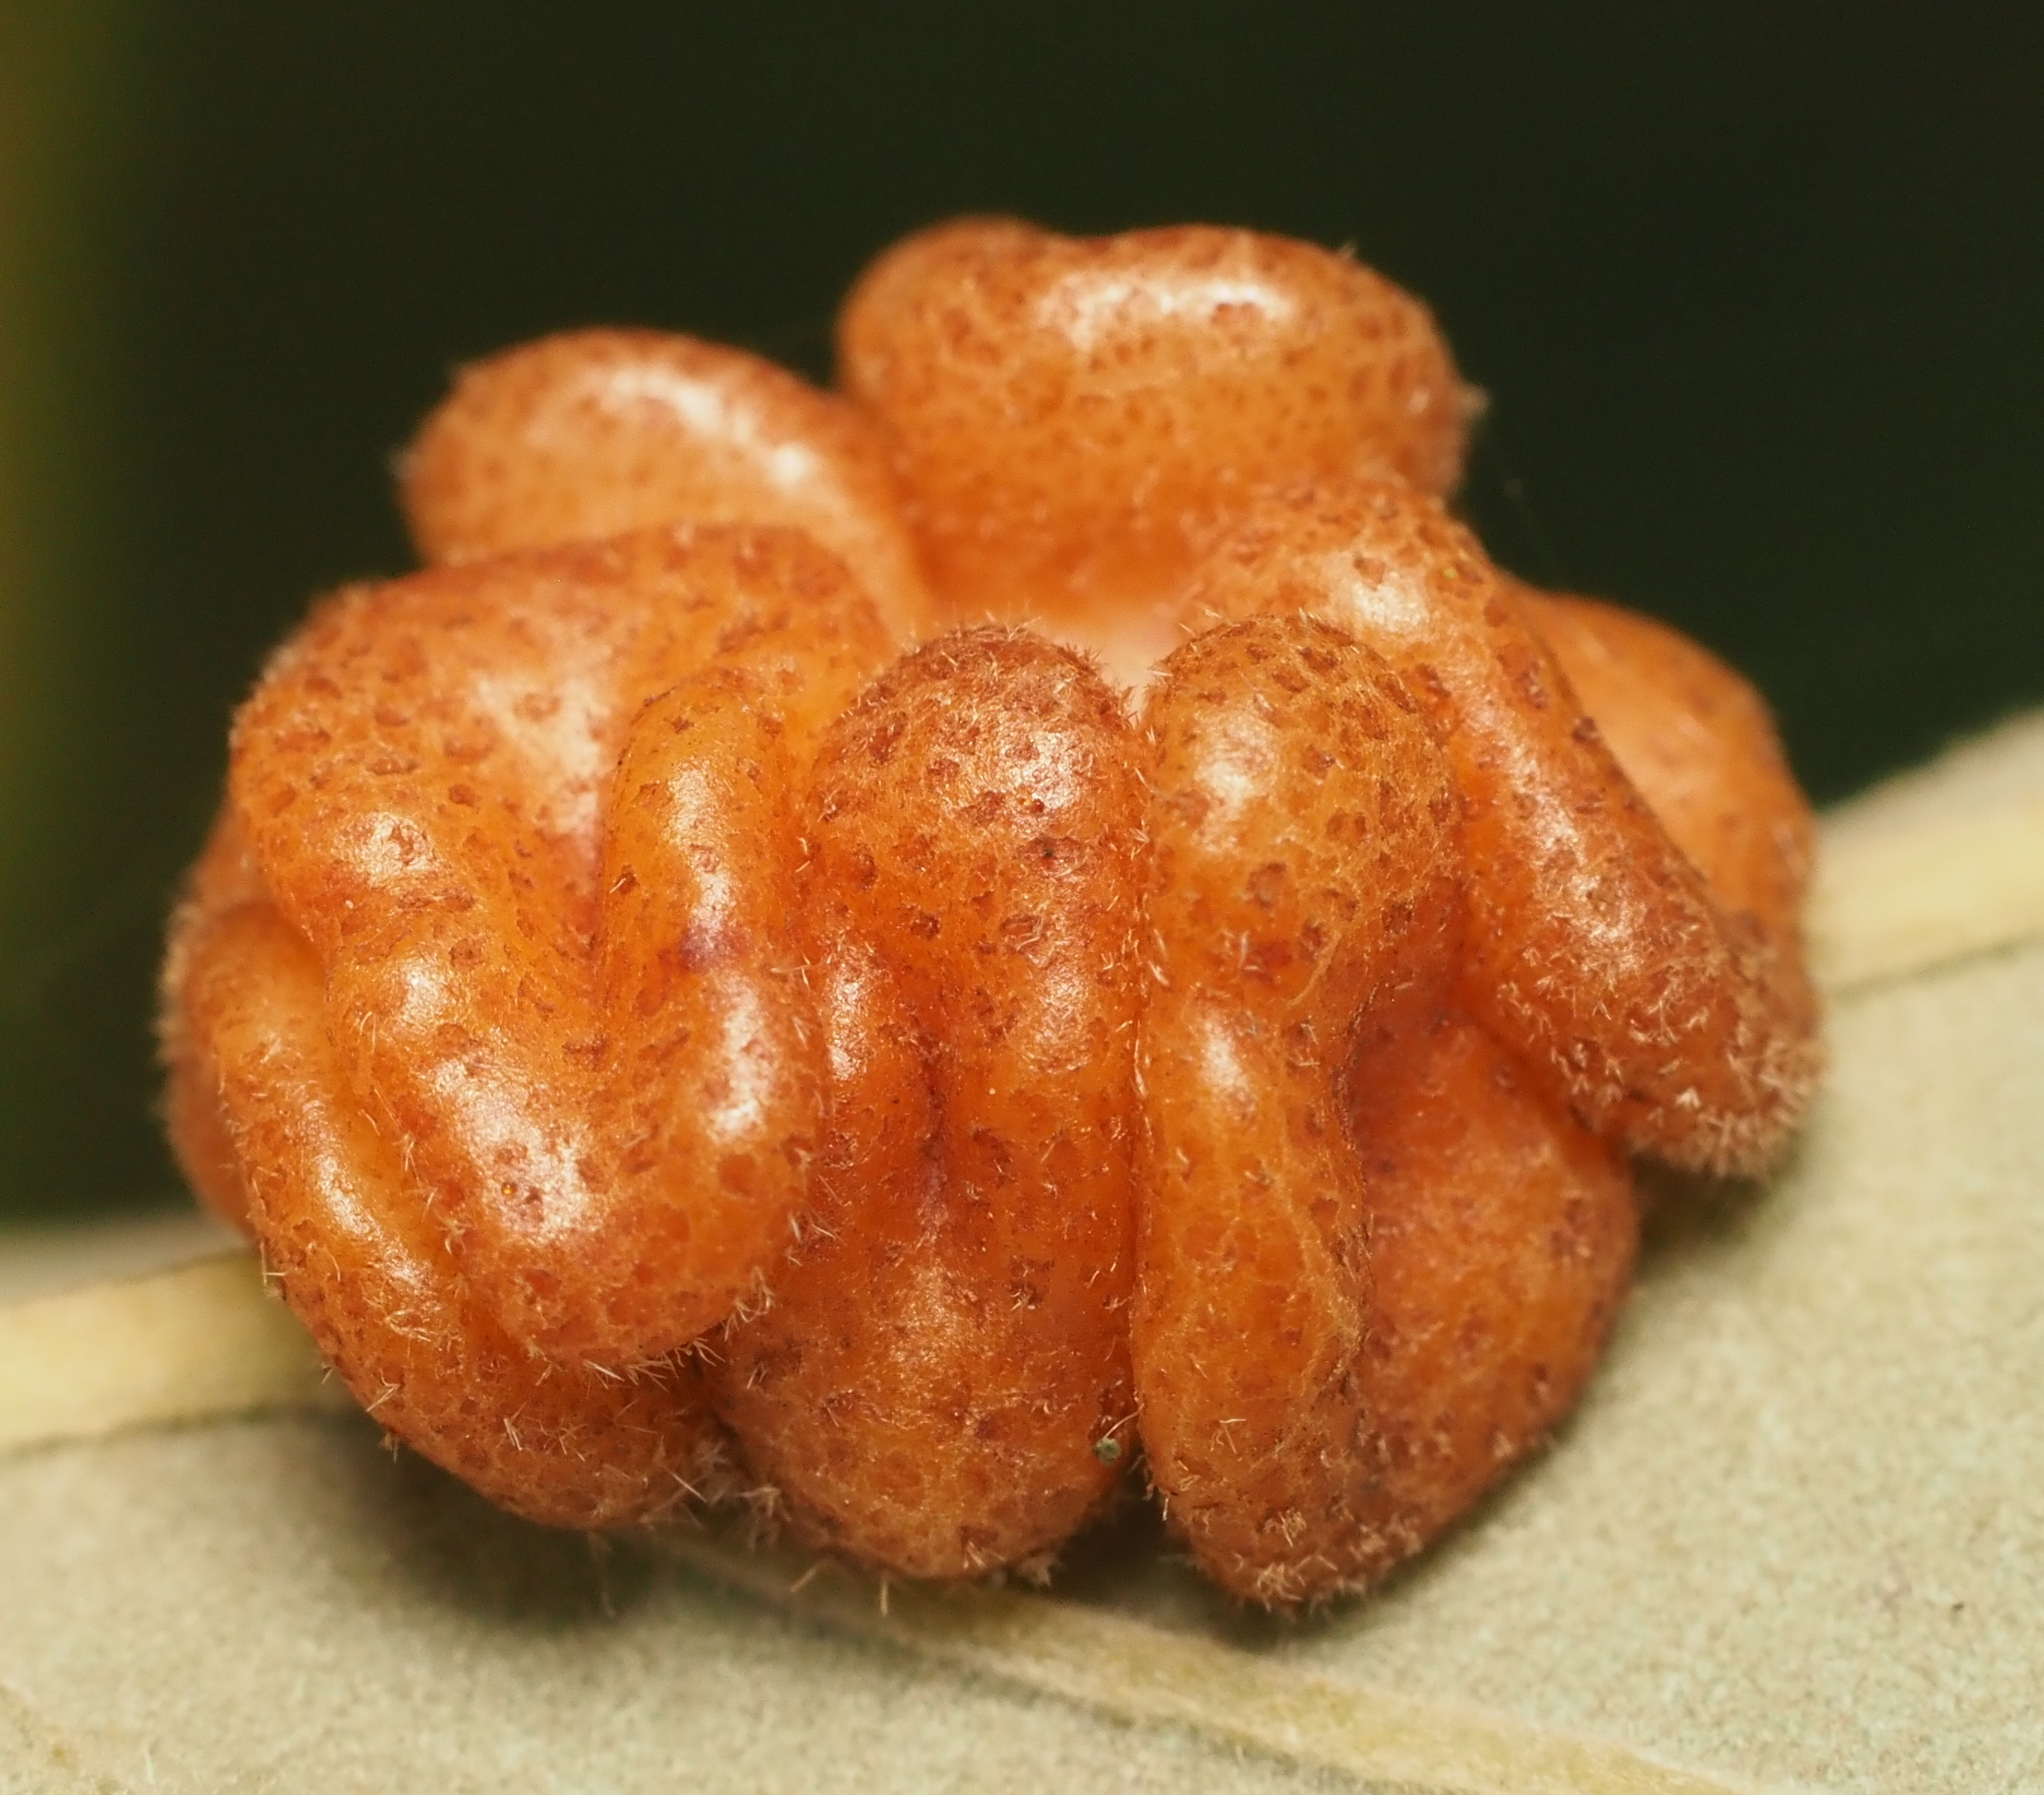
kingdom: Animalia
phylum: Arthropoda
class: Insecta
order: Hymenoptera
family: Cynipidae
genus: Andricus
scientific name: Andricus
